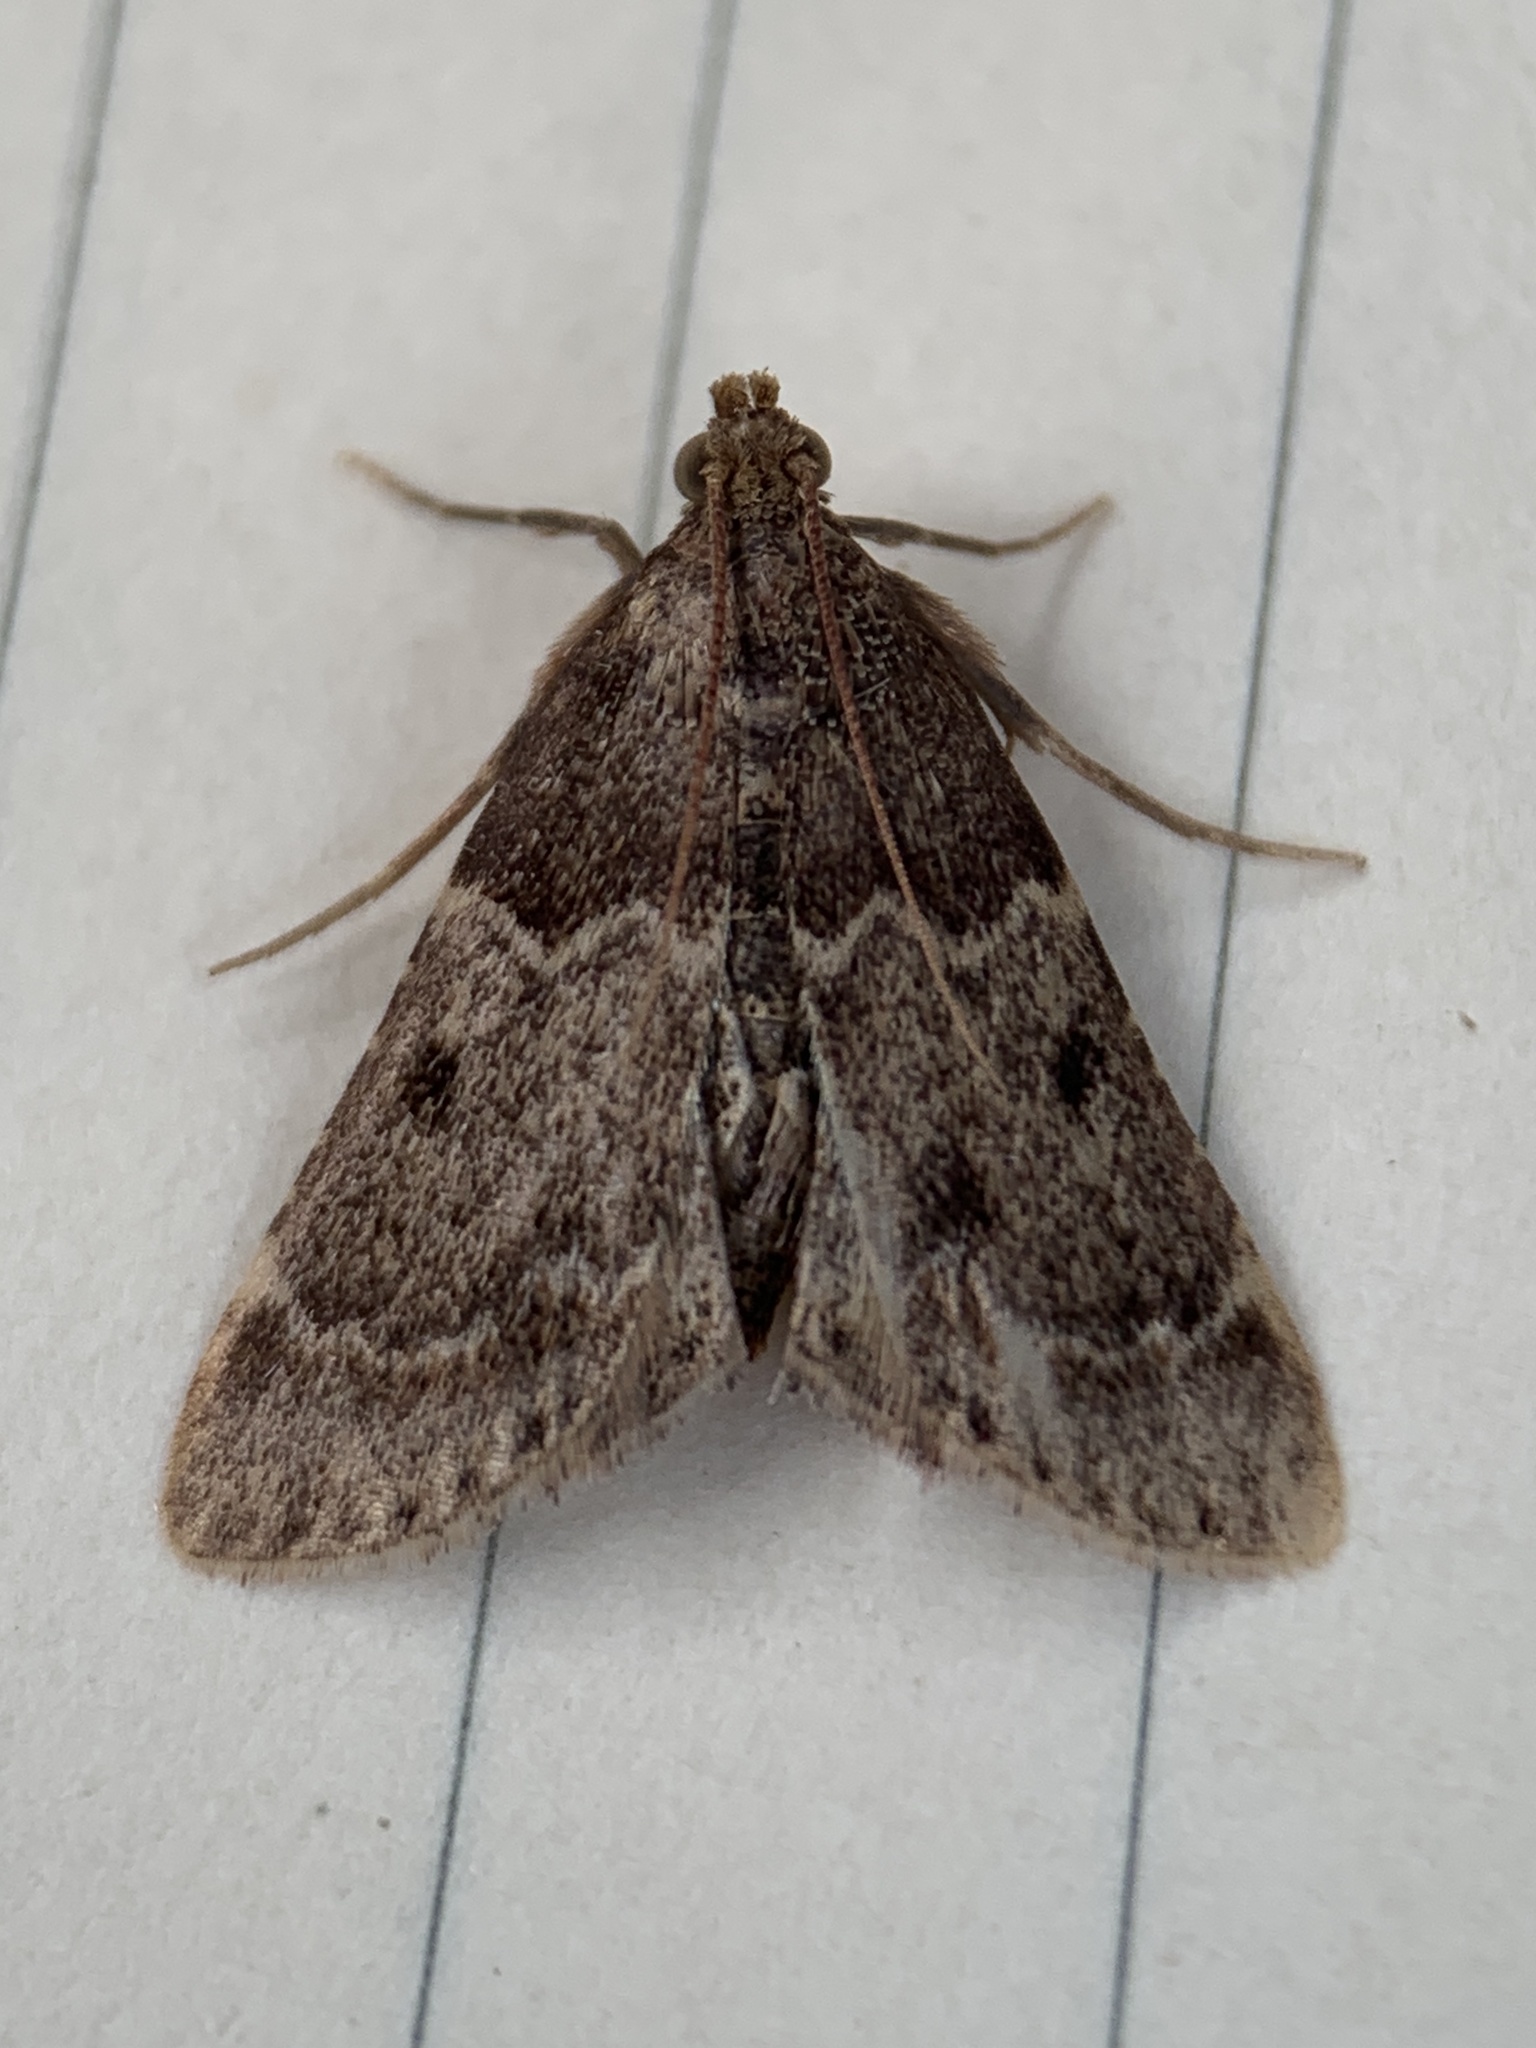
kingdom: Animalia
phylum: Arthropoda
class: Insecta
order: Lepidoptera
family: Pyralidae
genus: Pyralis
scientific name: Pyralis manihotalis
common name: Moth
